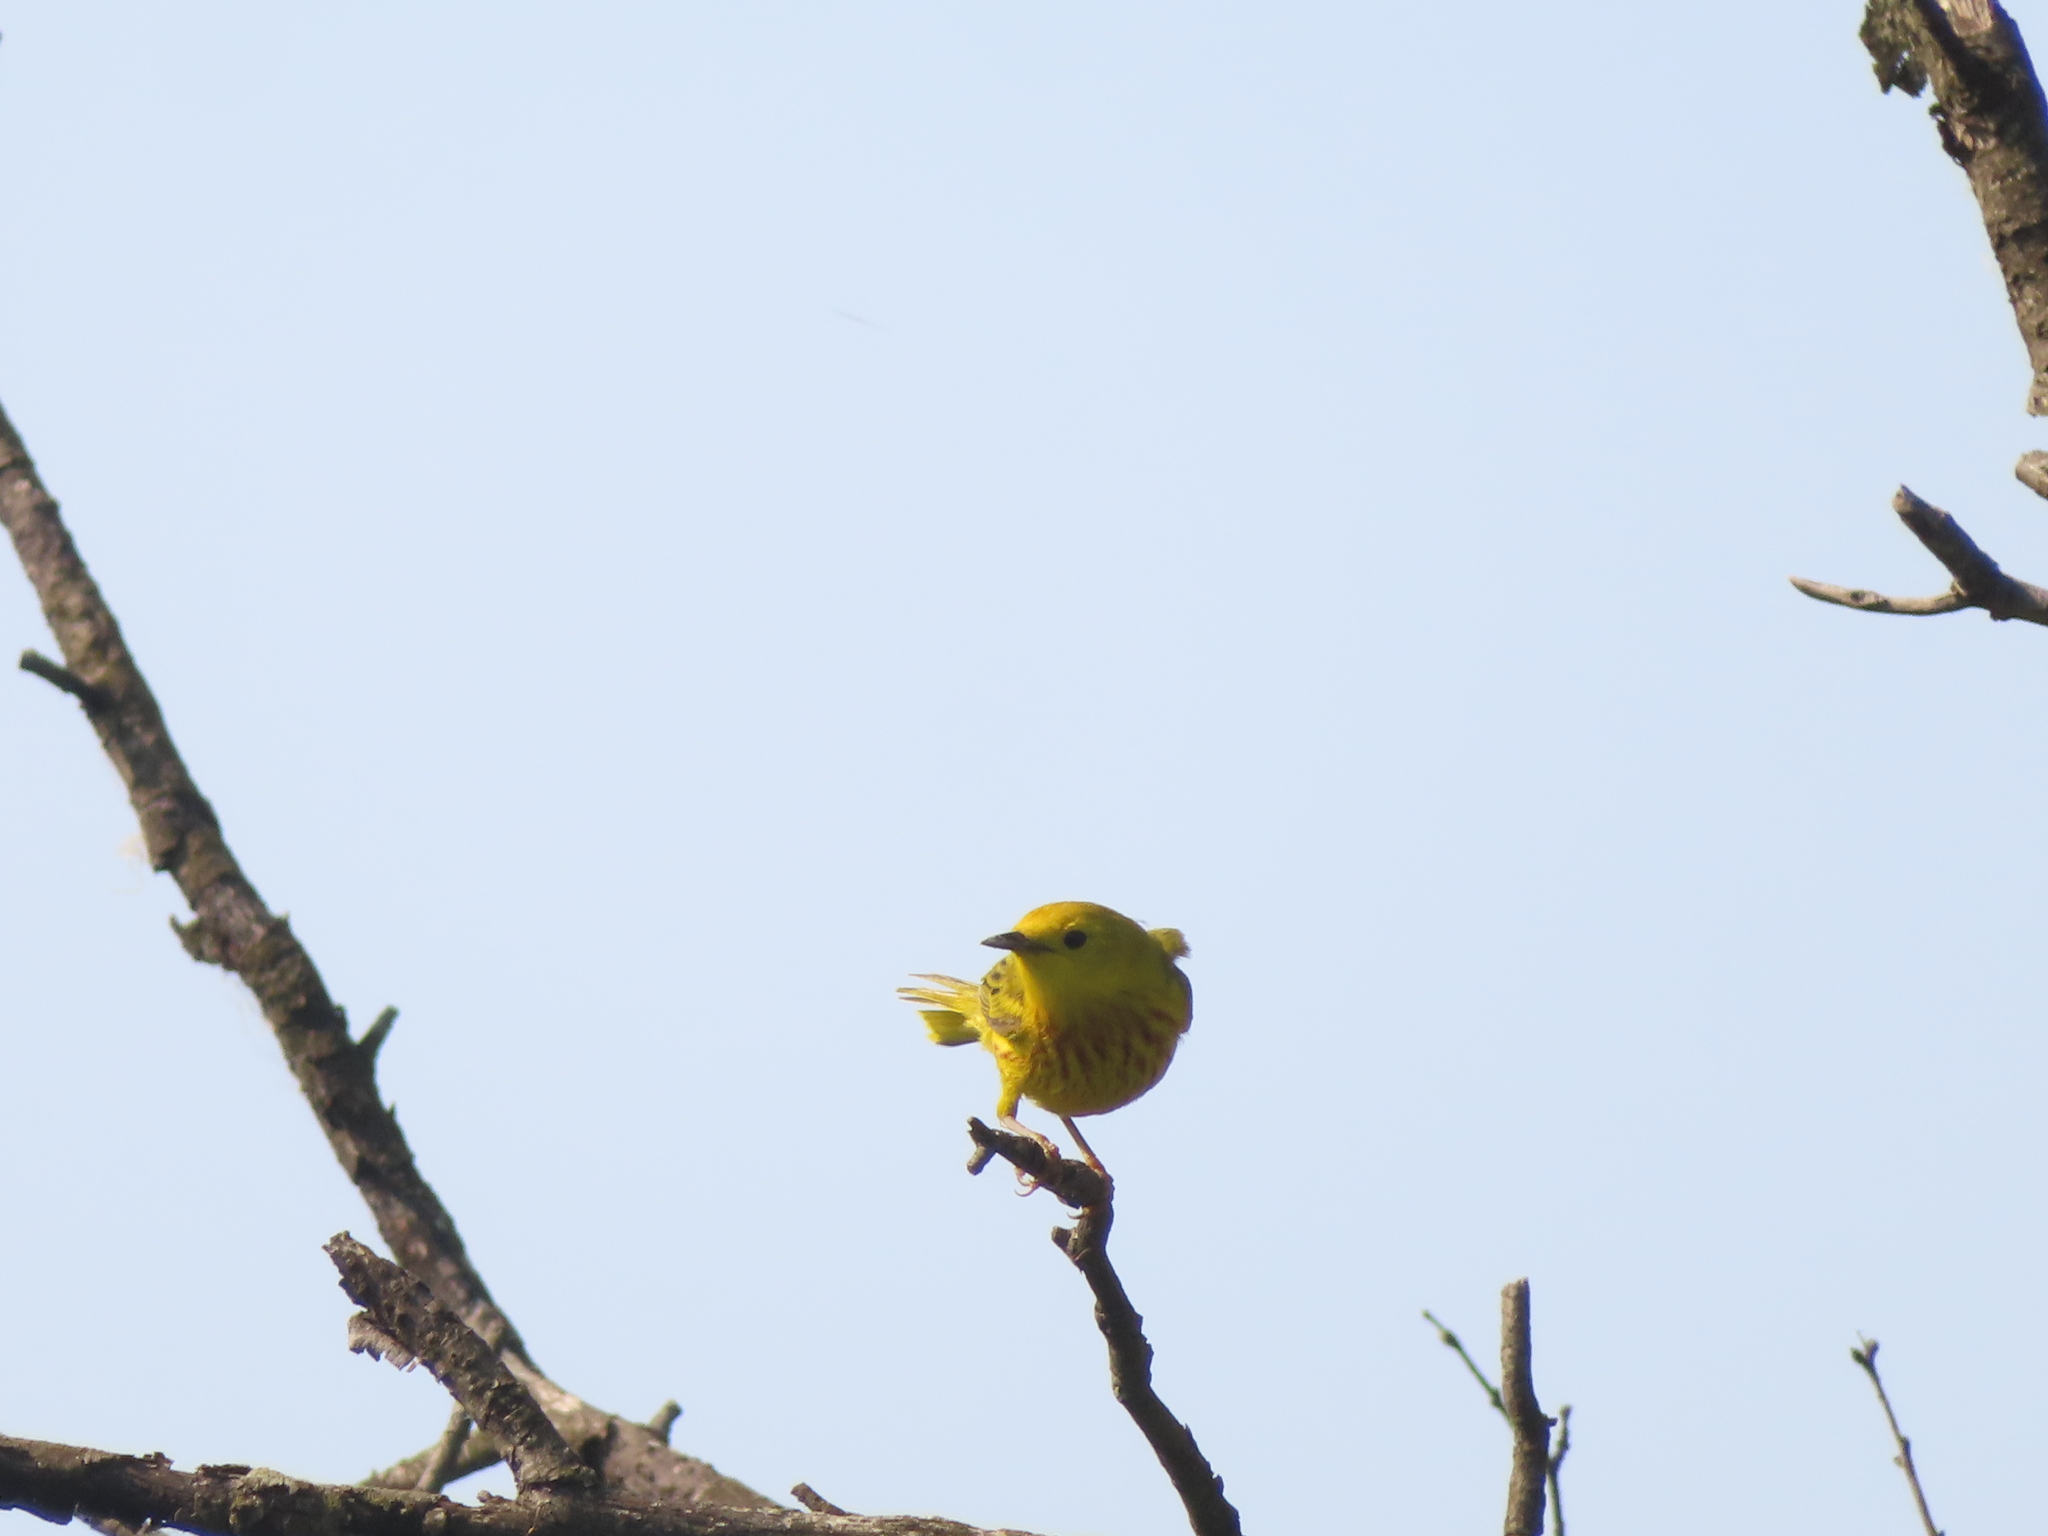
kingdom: Animalia
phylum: Chordata
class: Aves
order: Passeriformes
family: Parulidae
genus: Setophaga
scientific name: Setophaga petechia
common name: Yellow warbler
